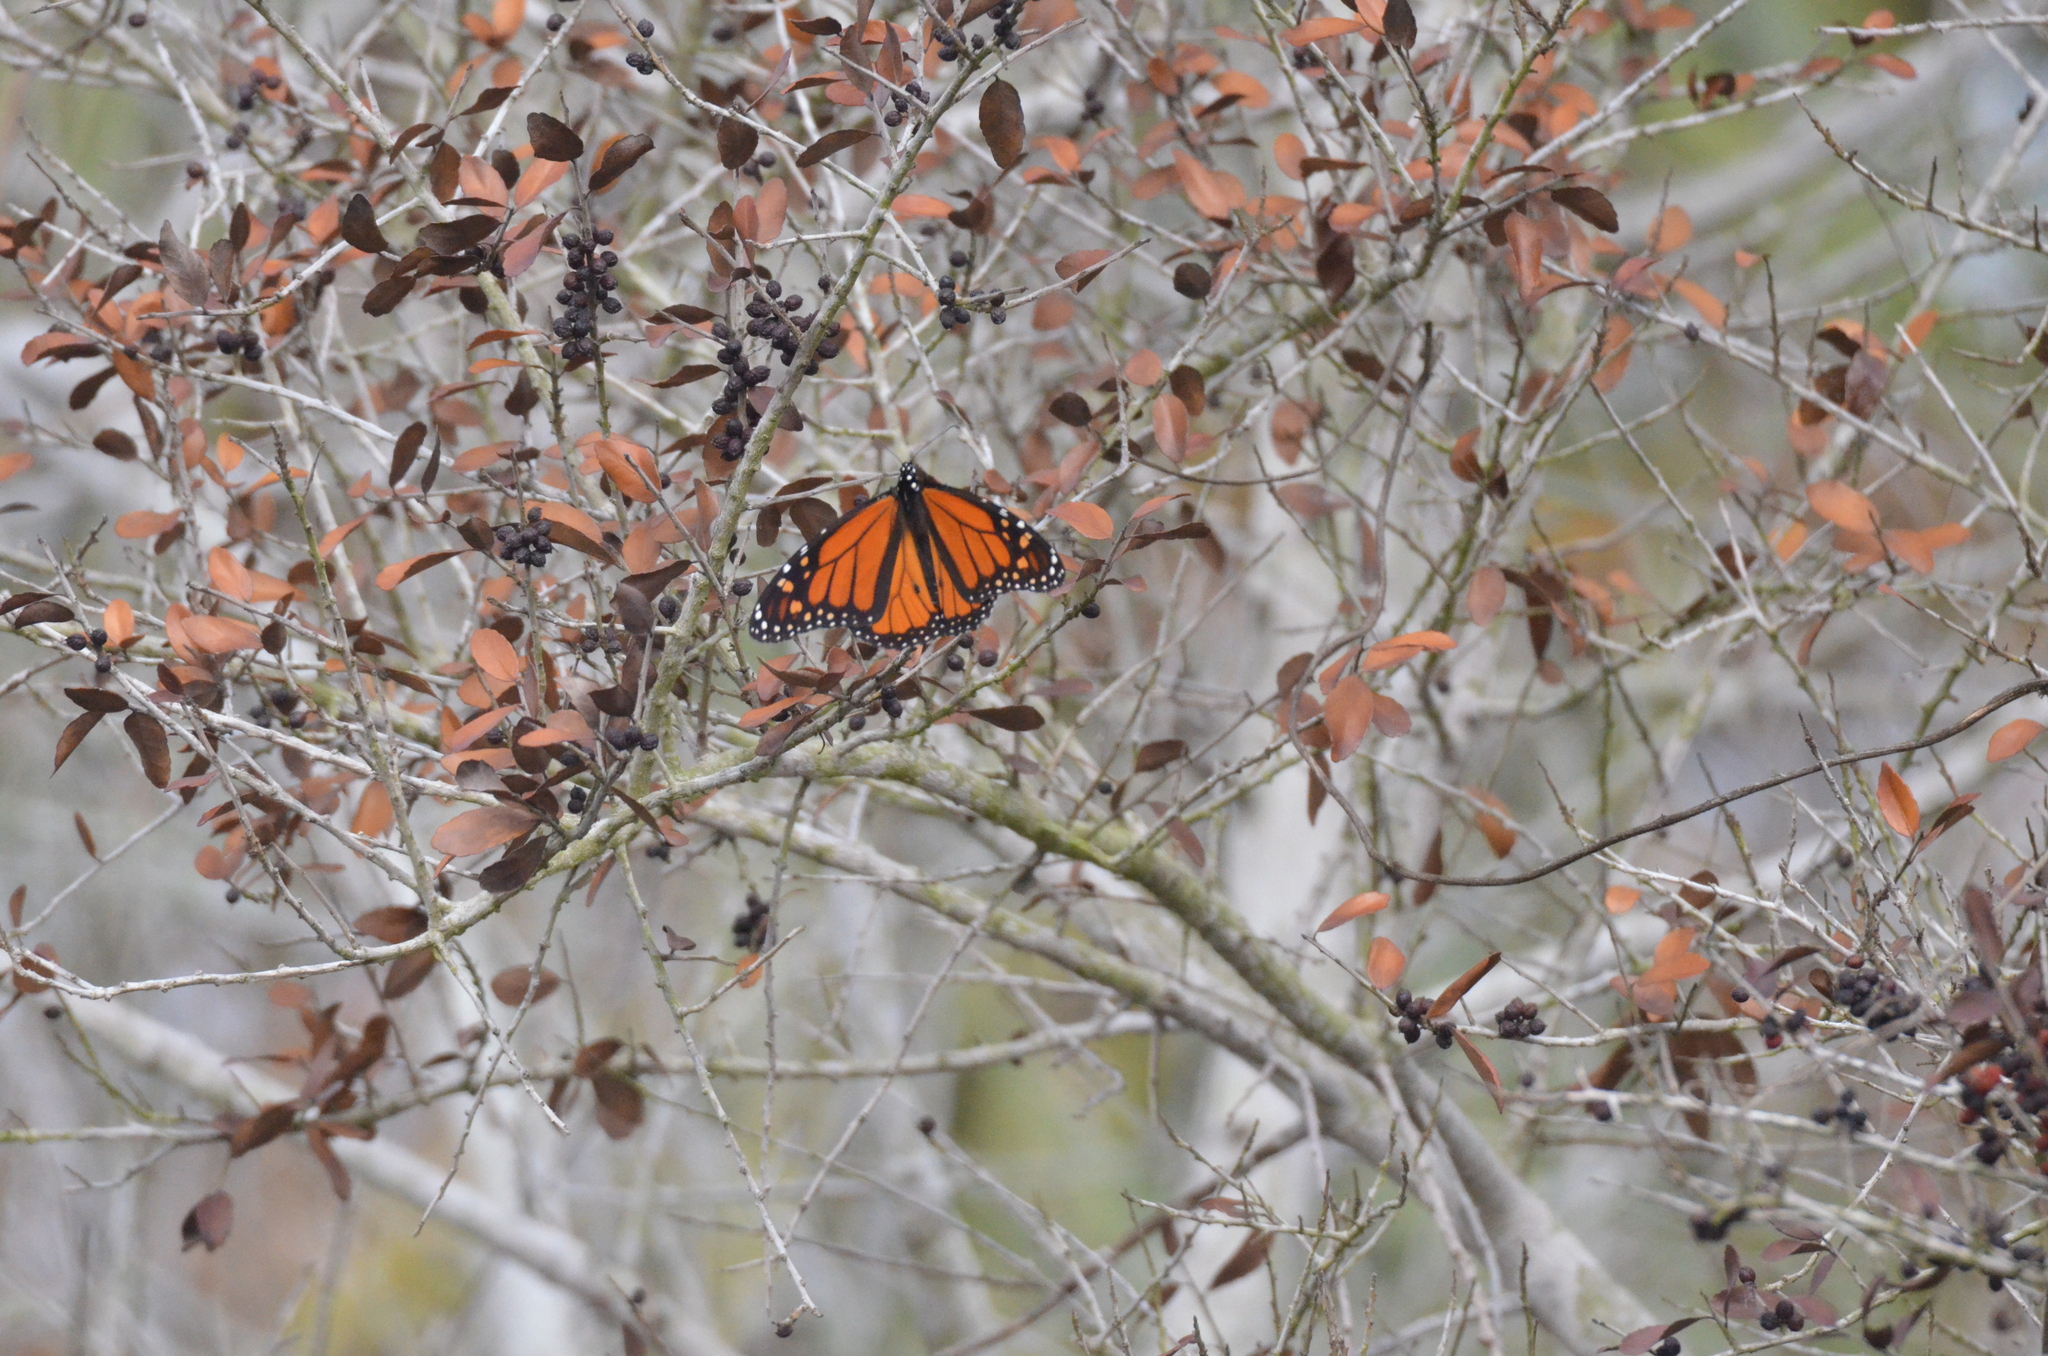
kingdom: Animalia
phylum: Arthropoda
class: Insecta
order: Lepidoptera
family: Nymphalidae
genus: Danaus
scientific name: Danaus plexippus
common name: Monarch
